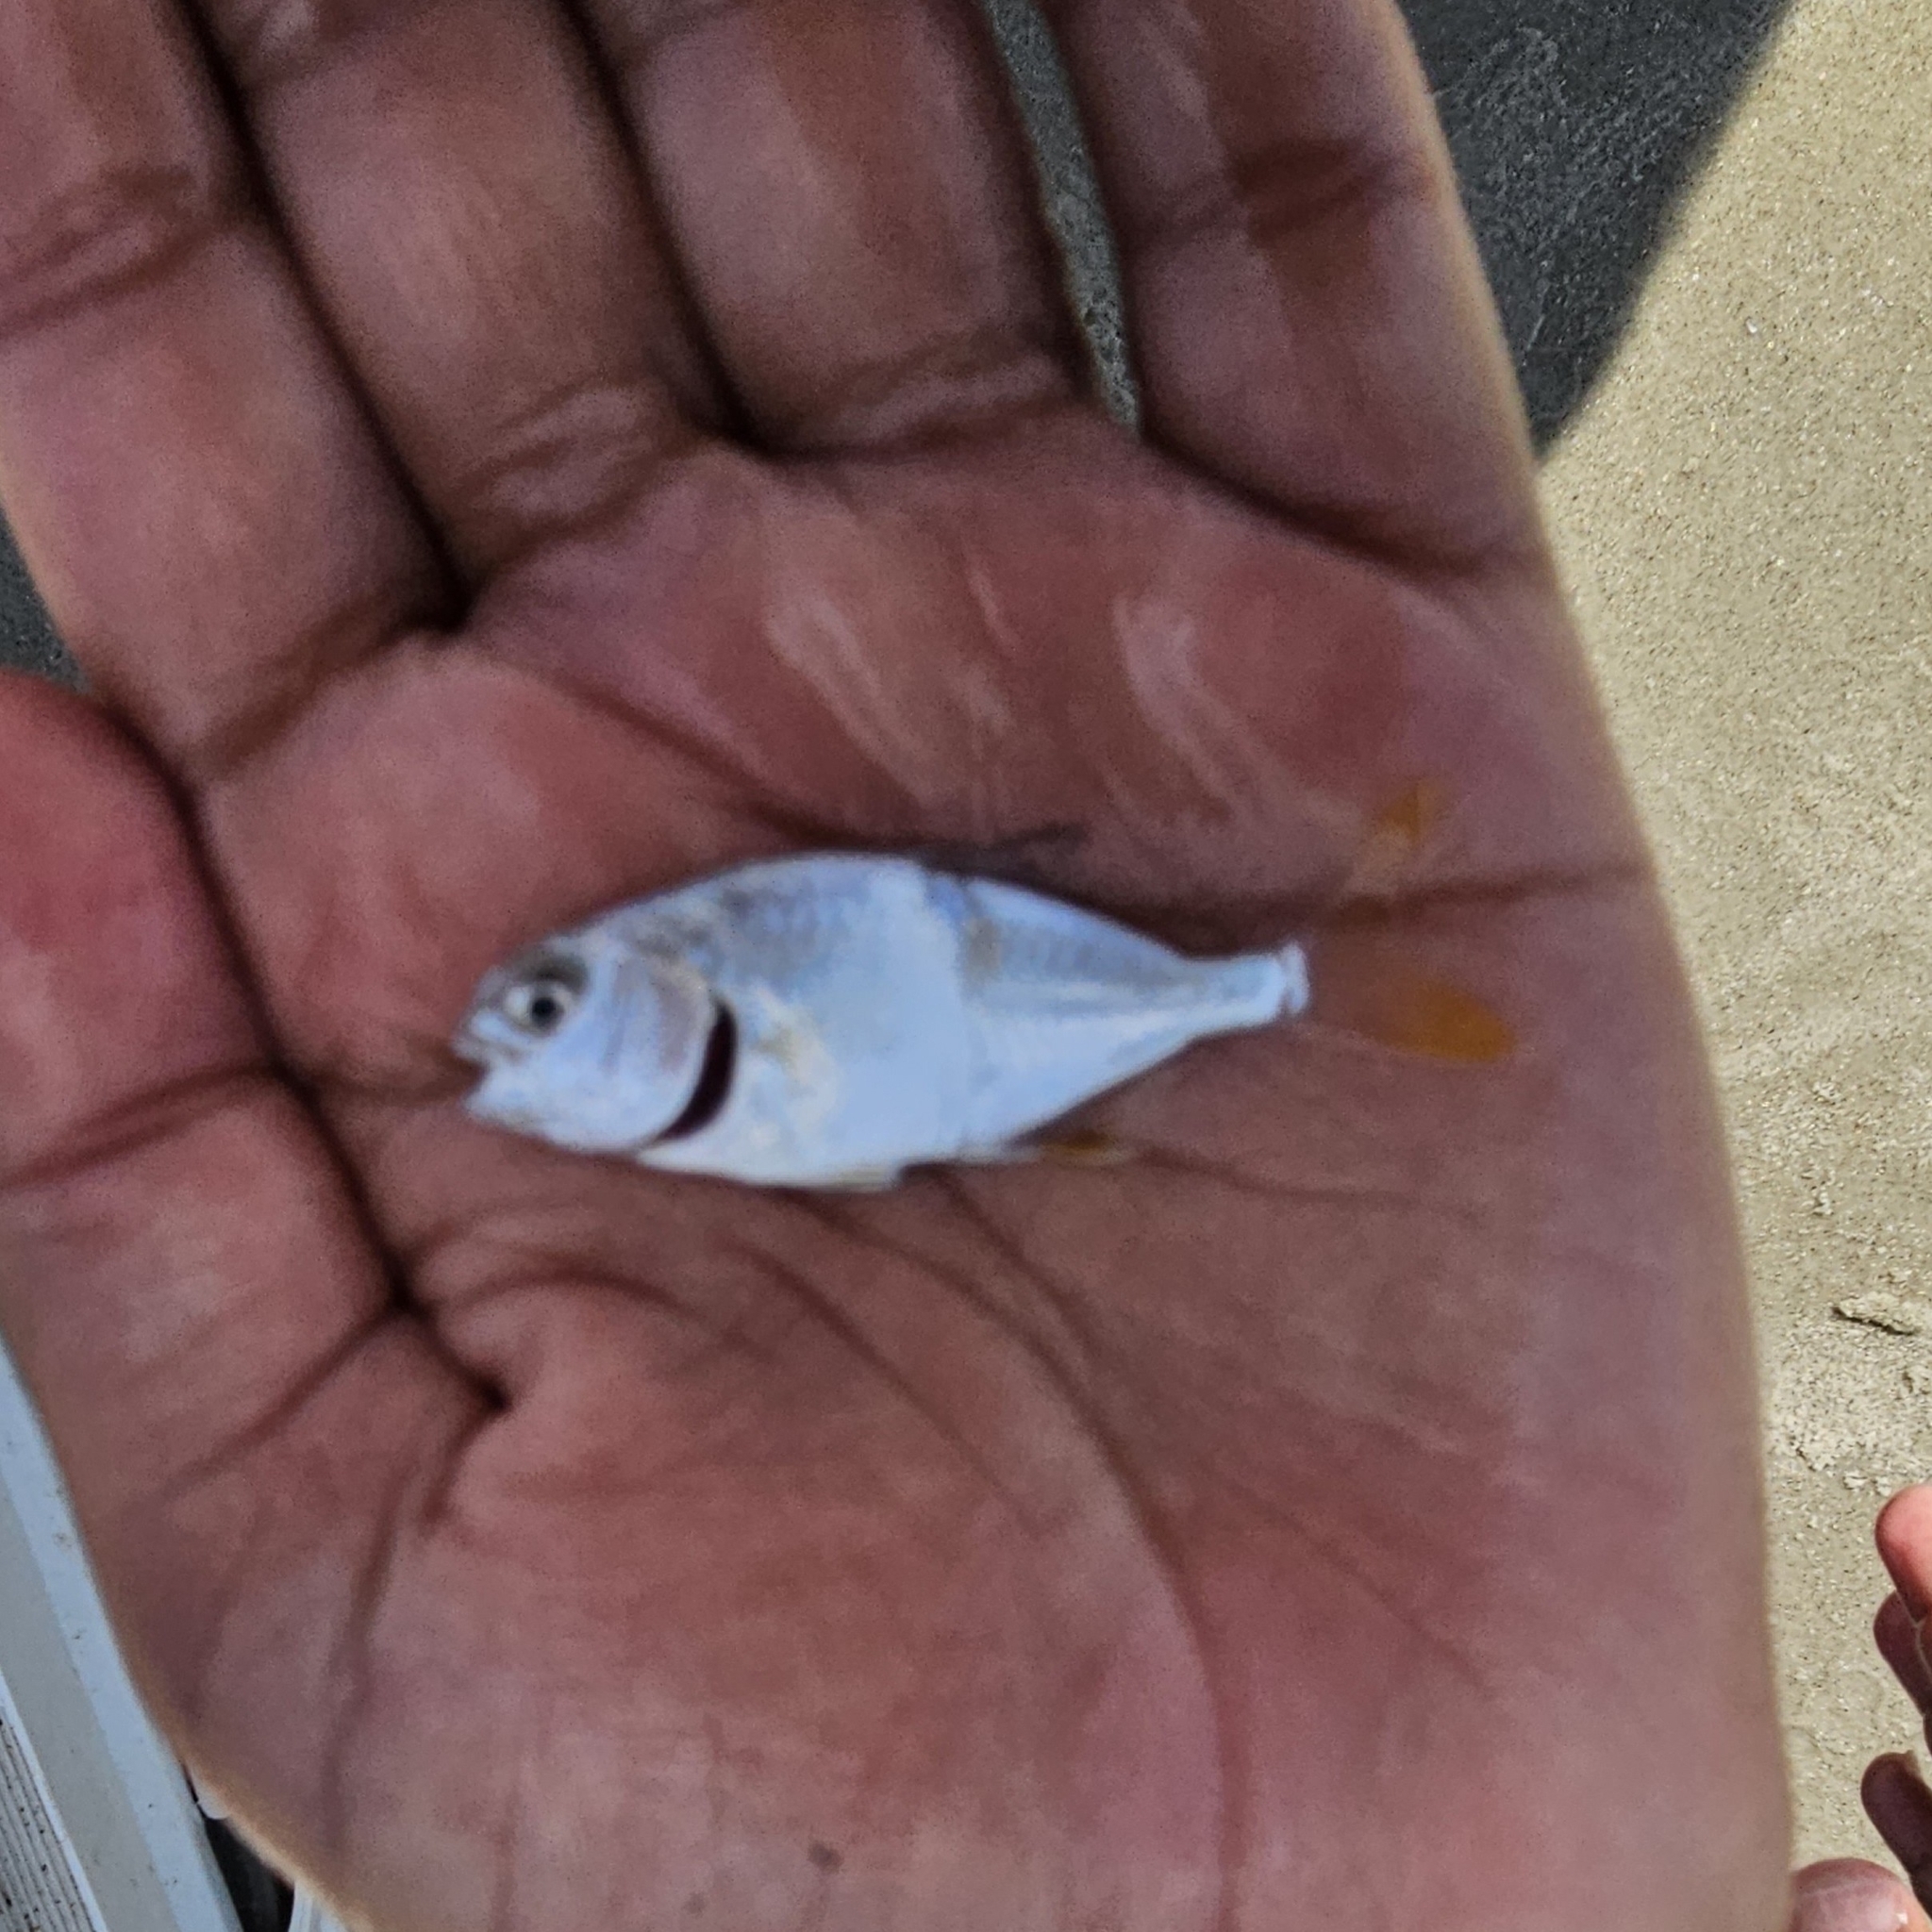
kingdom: Animalia
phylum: Chordata
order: Perciformes
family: Carangidae
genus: Trachinotus
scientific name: Trachinotus carolinus
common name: Florida pompano
